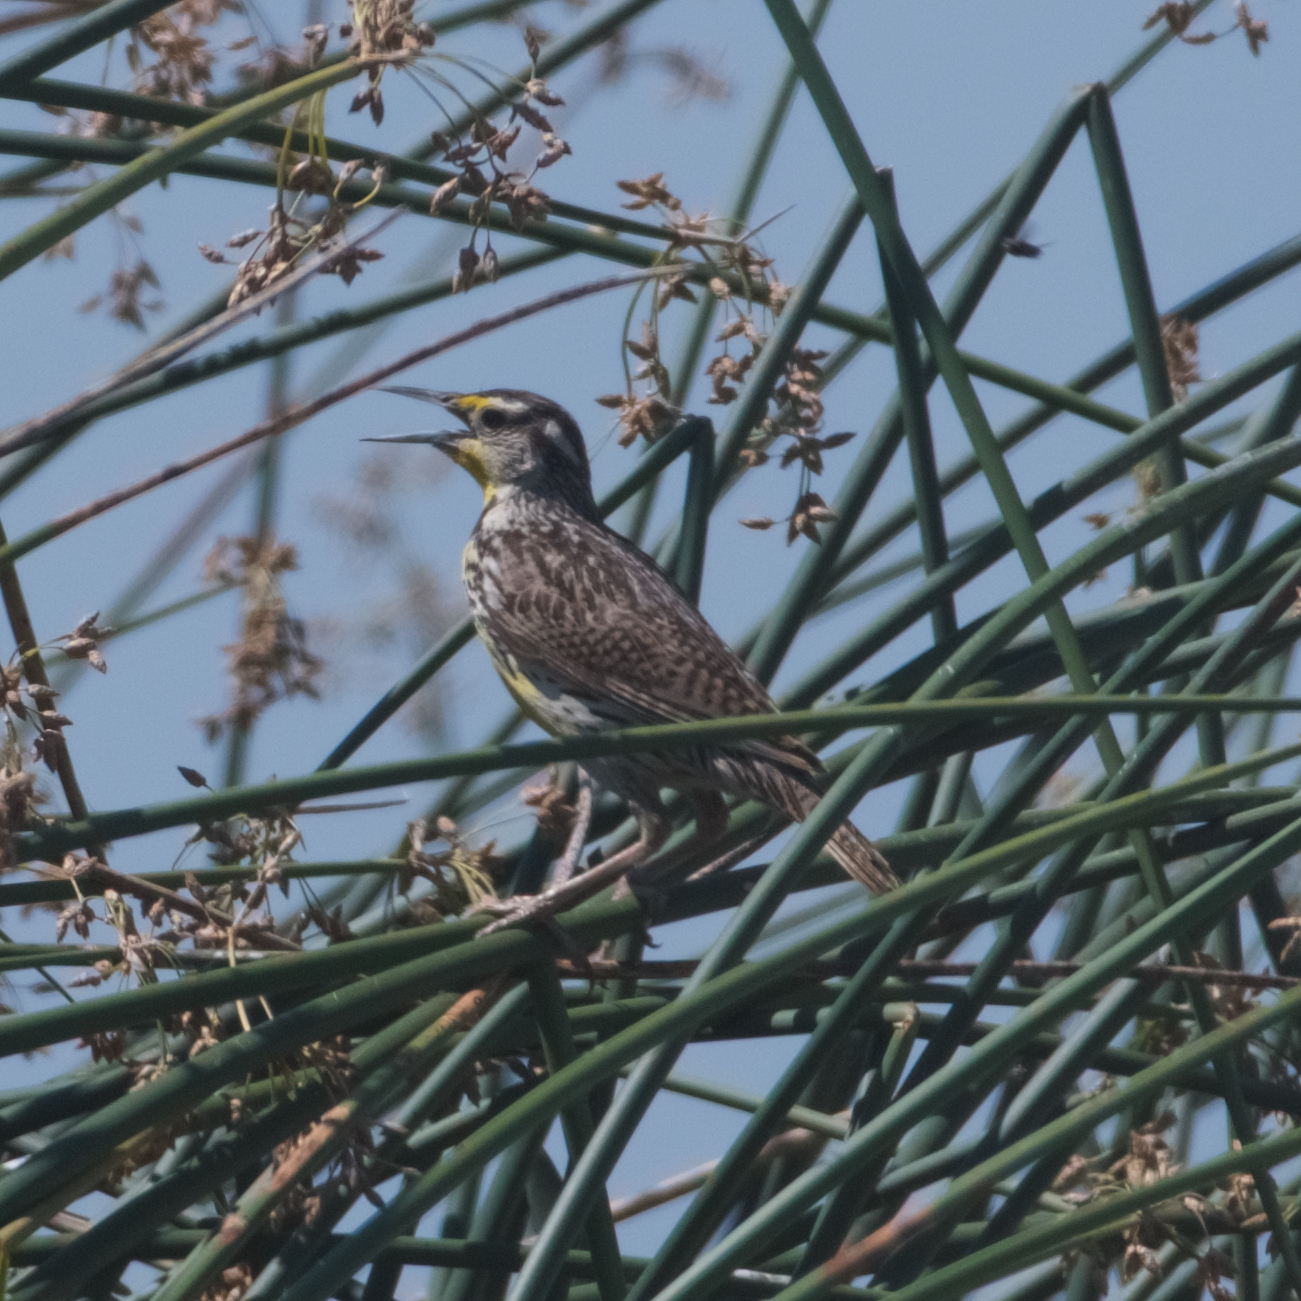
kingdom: Animalia
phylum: Chordata
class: Aves
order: Passeriformes
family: Icteridae
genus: Sturnella
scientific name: Sturnella neglecta
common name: Western meadowlark
